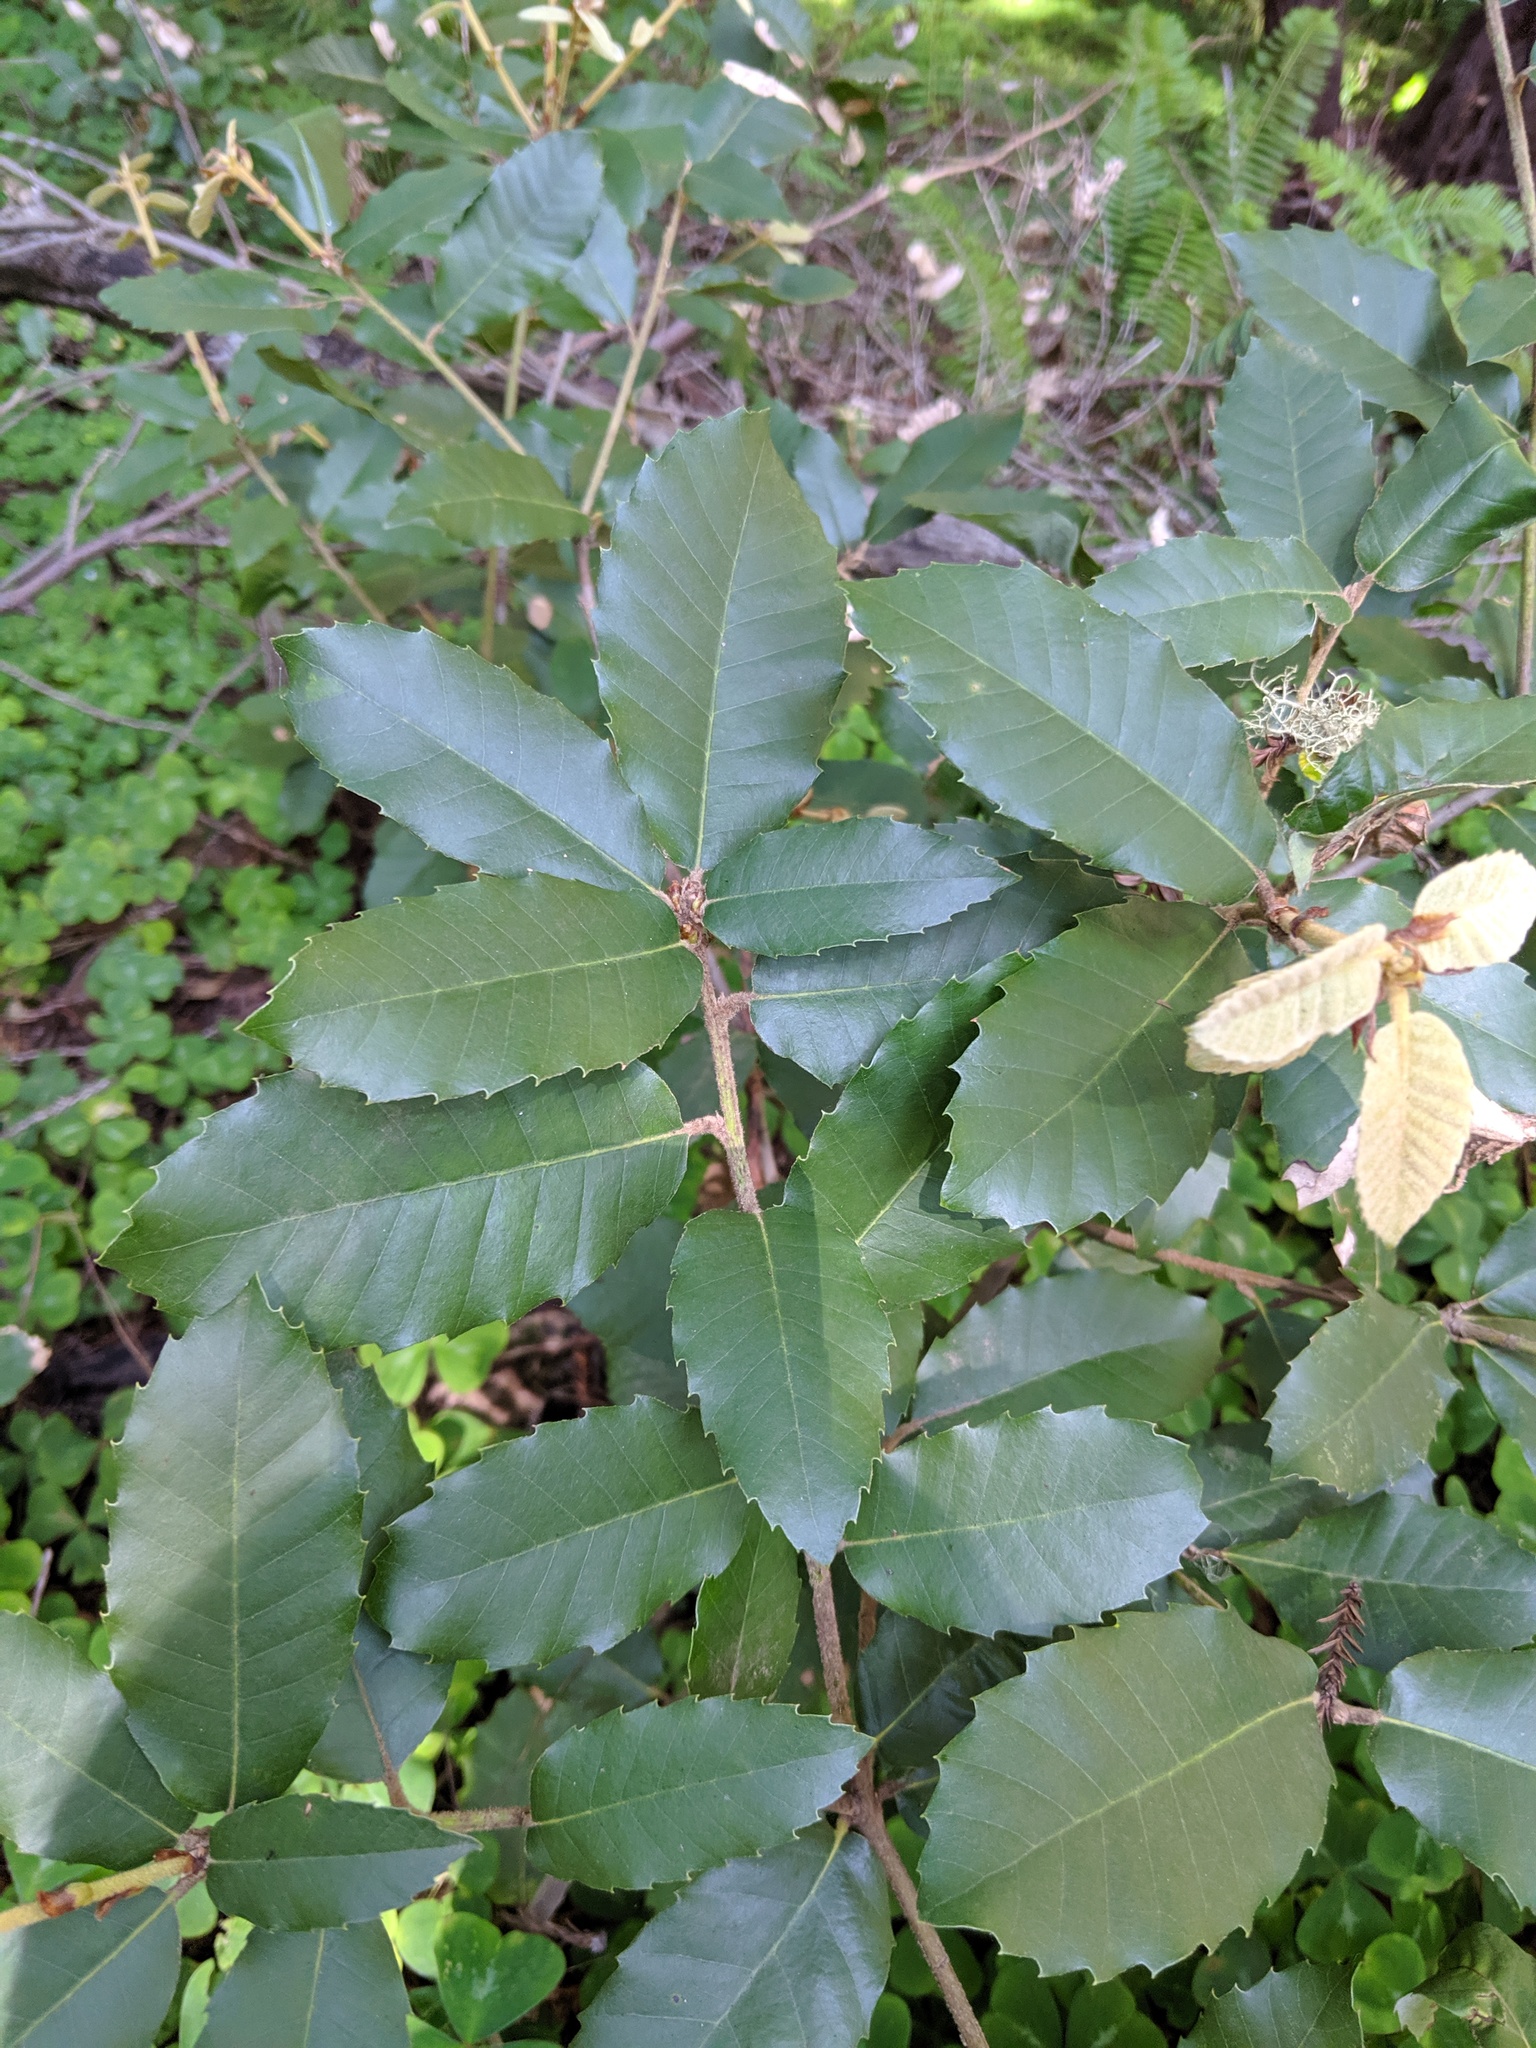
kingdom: Plantae
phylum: Tracheophyta
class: Magnoliopsida
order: Fagales
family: Fagaceae
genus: Notholithocarpus
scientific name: Notholithocarpus densiflorus
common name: Tan bark oak
